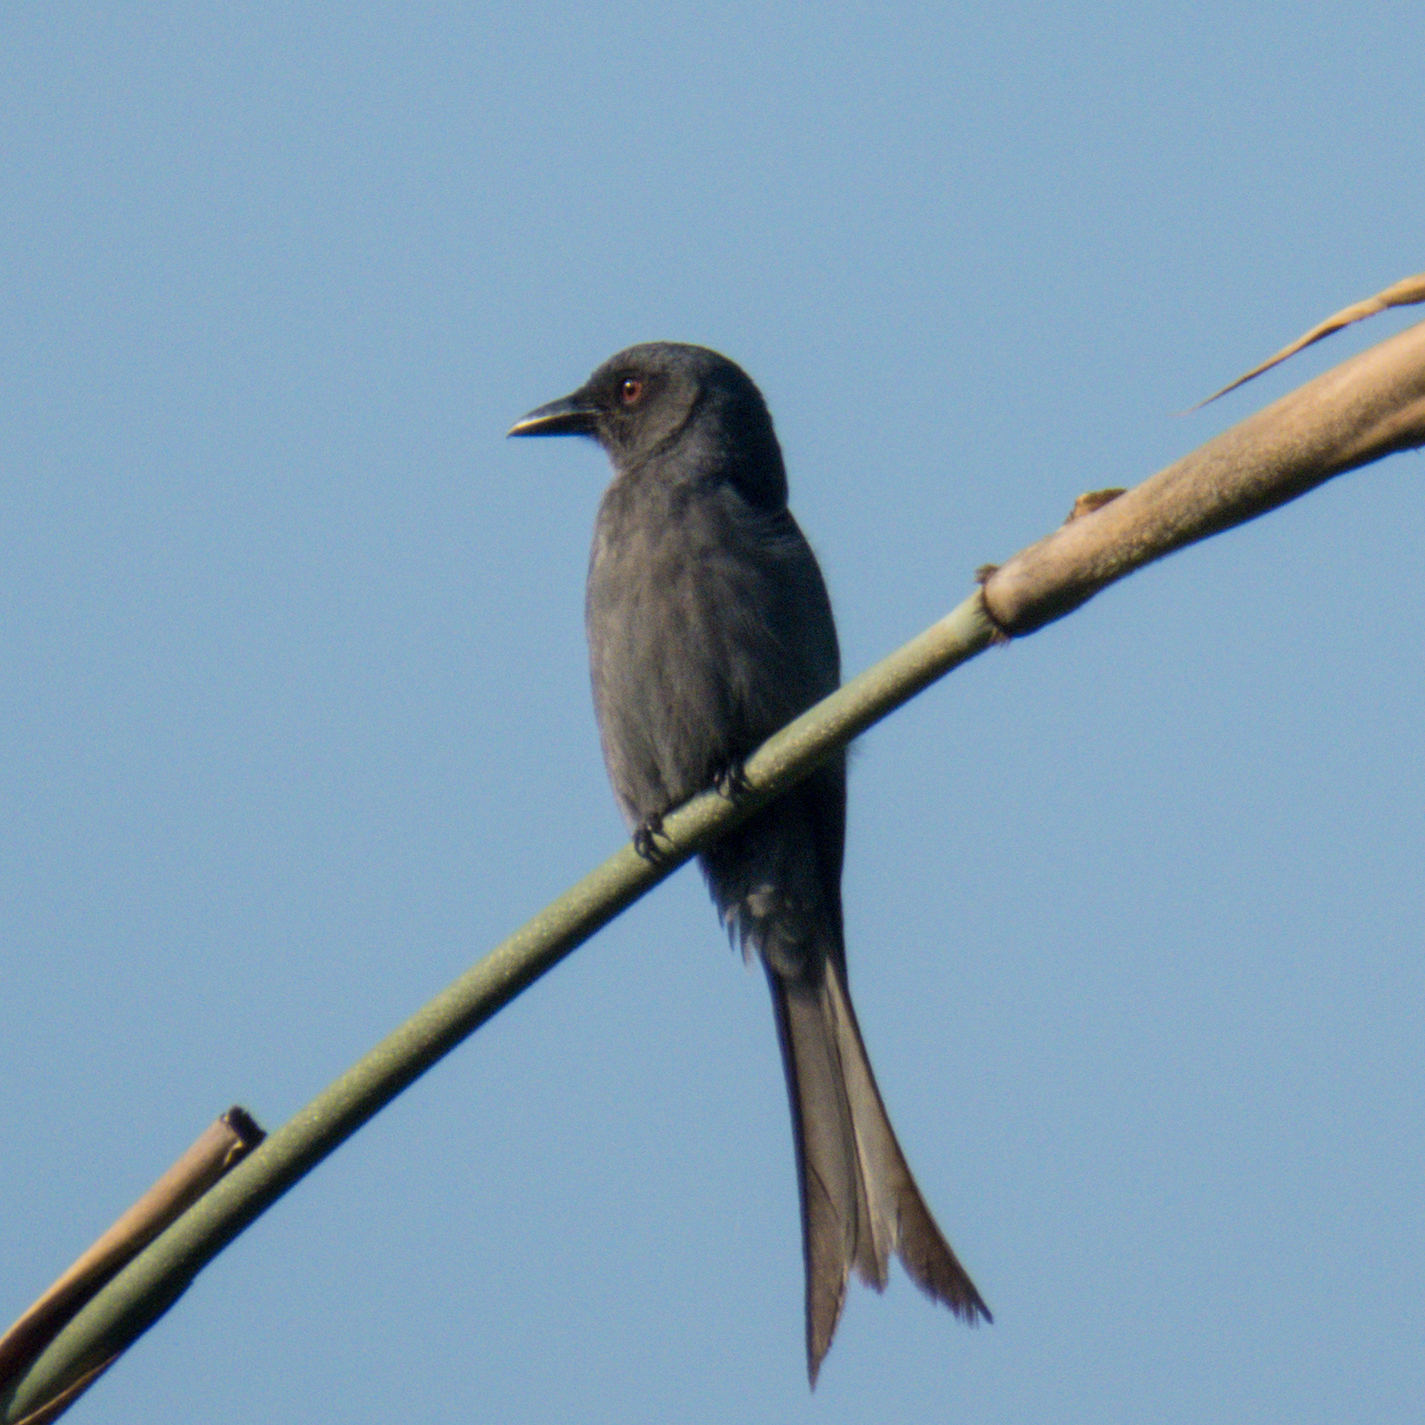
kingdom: Animalia
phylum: Chordata
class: Aves
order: Passeriformes
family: Dicruridae
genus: Dicrurus
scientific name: Dicrurus leucophaeus
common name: Ashy drongo
